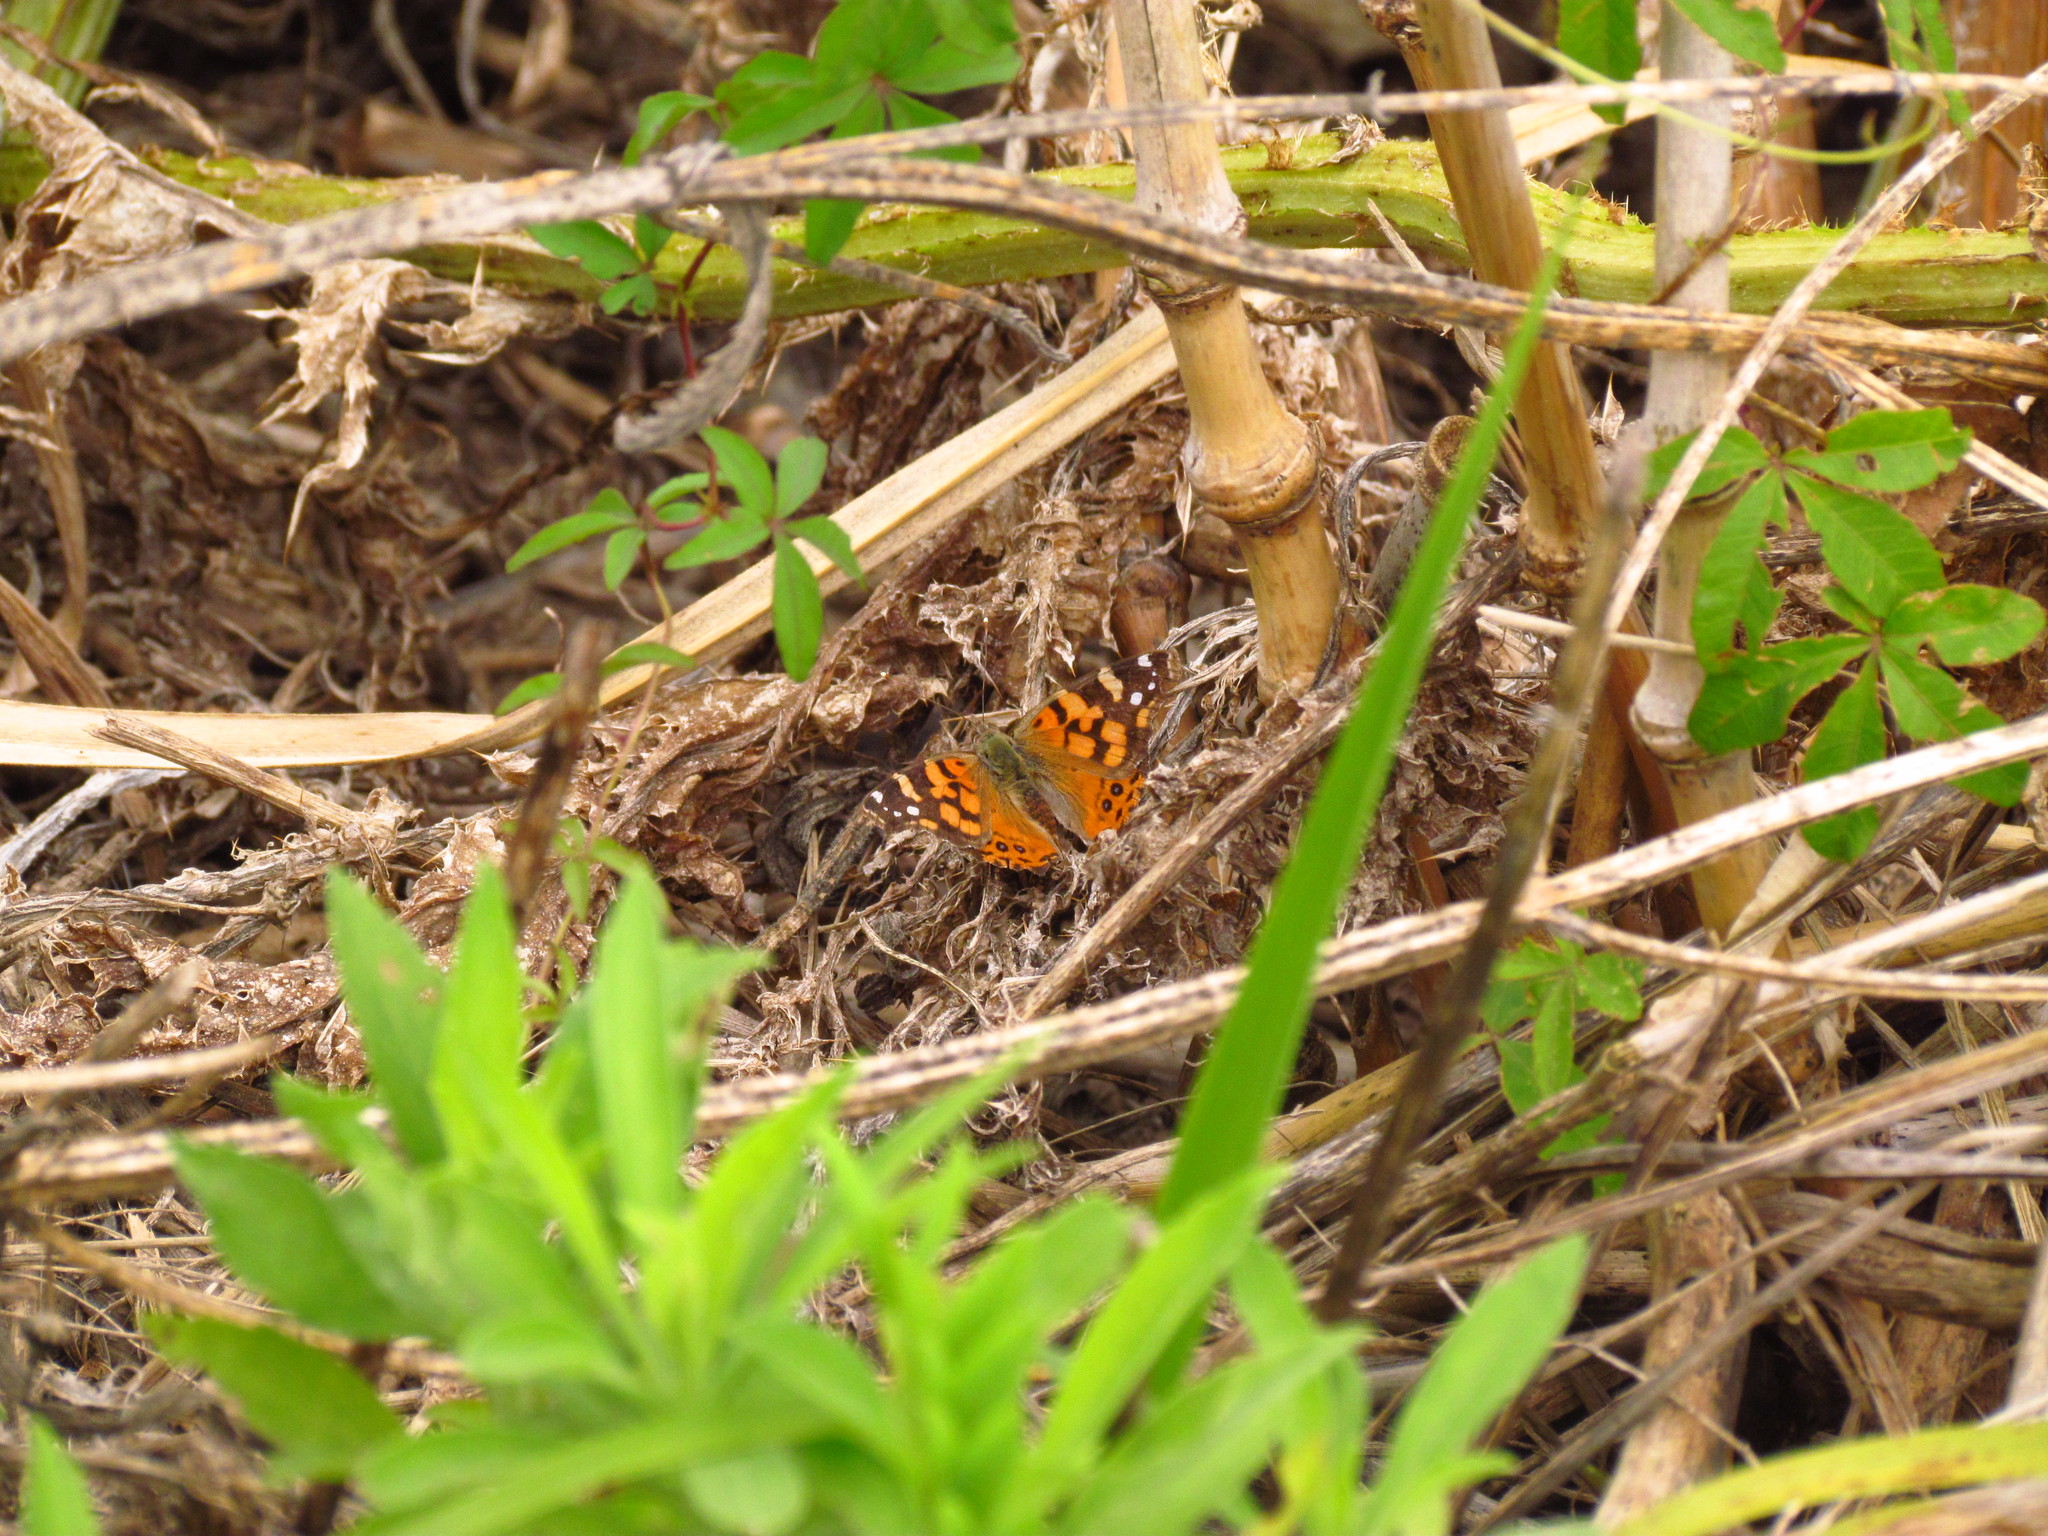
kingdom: Animalia
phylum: Arthropoda
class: Insecta
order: Lepidoptera
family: Nymphalidae
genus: Vanessa
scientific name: Vanessa carye
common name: Subtropical lady
